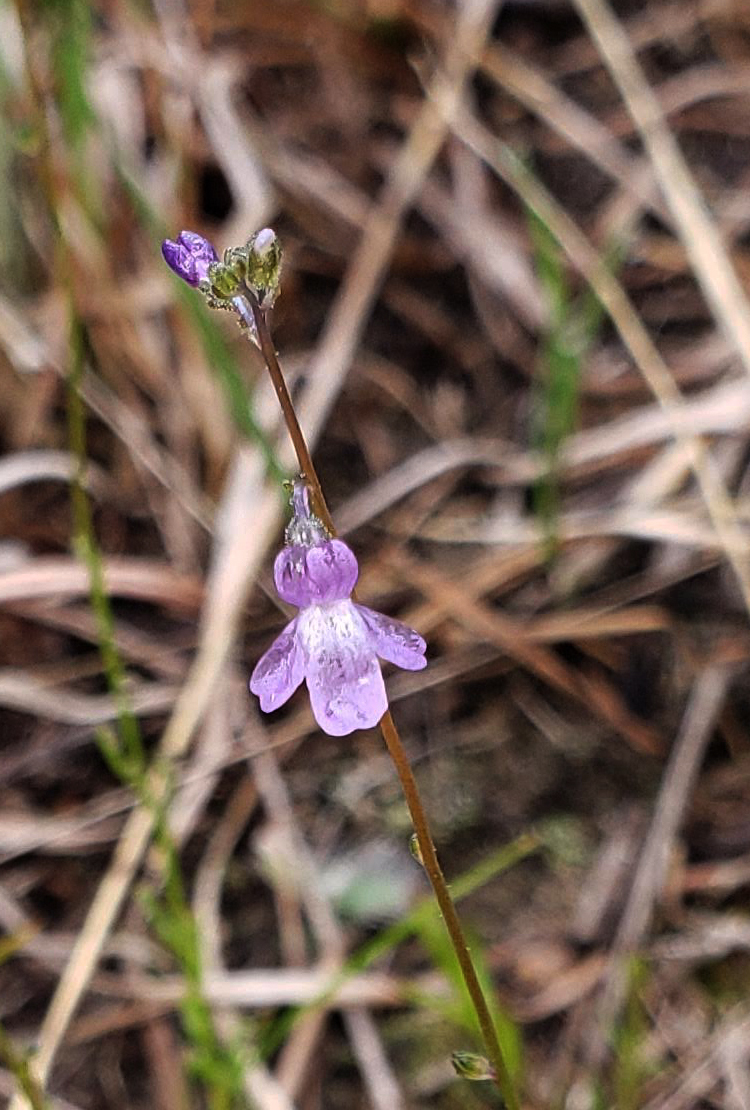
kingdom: Plantae
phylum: Tracheophyta
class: Magnoliopsida
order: Lamiales
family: Plantaginaceae
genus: Nuttallanthus
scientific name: Nuttallanthus canadensis
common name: Blue toadflax
